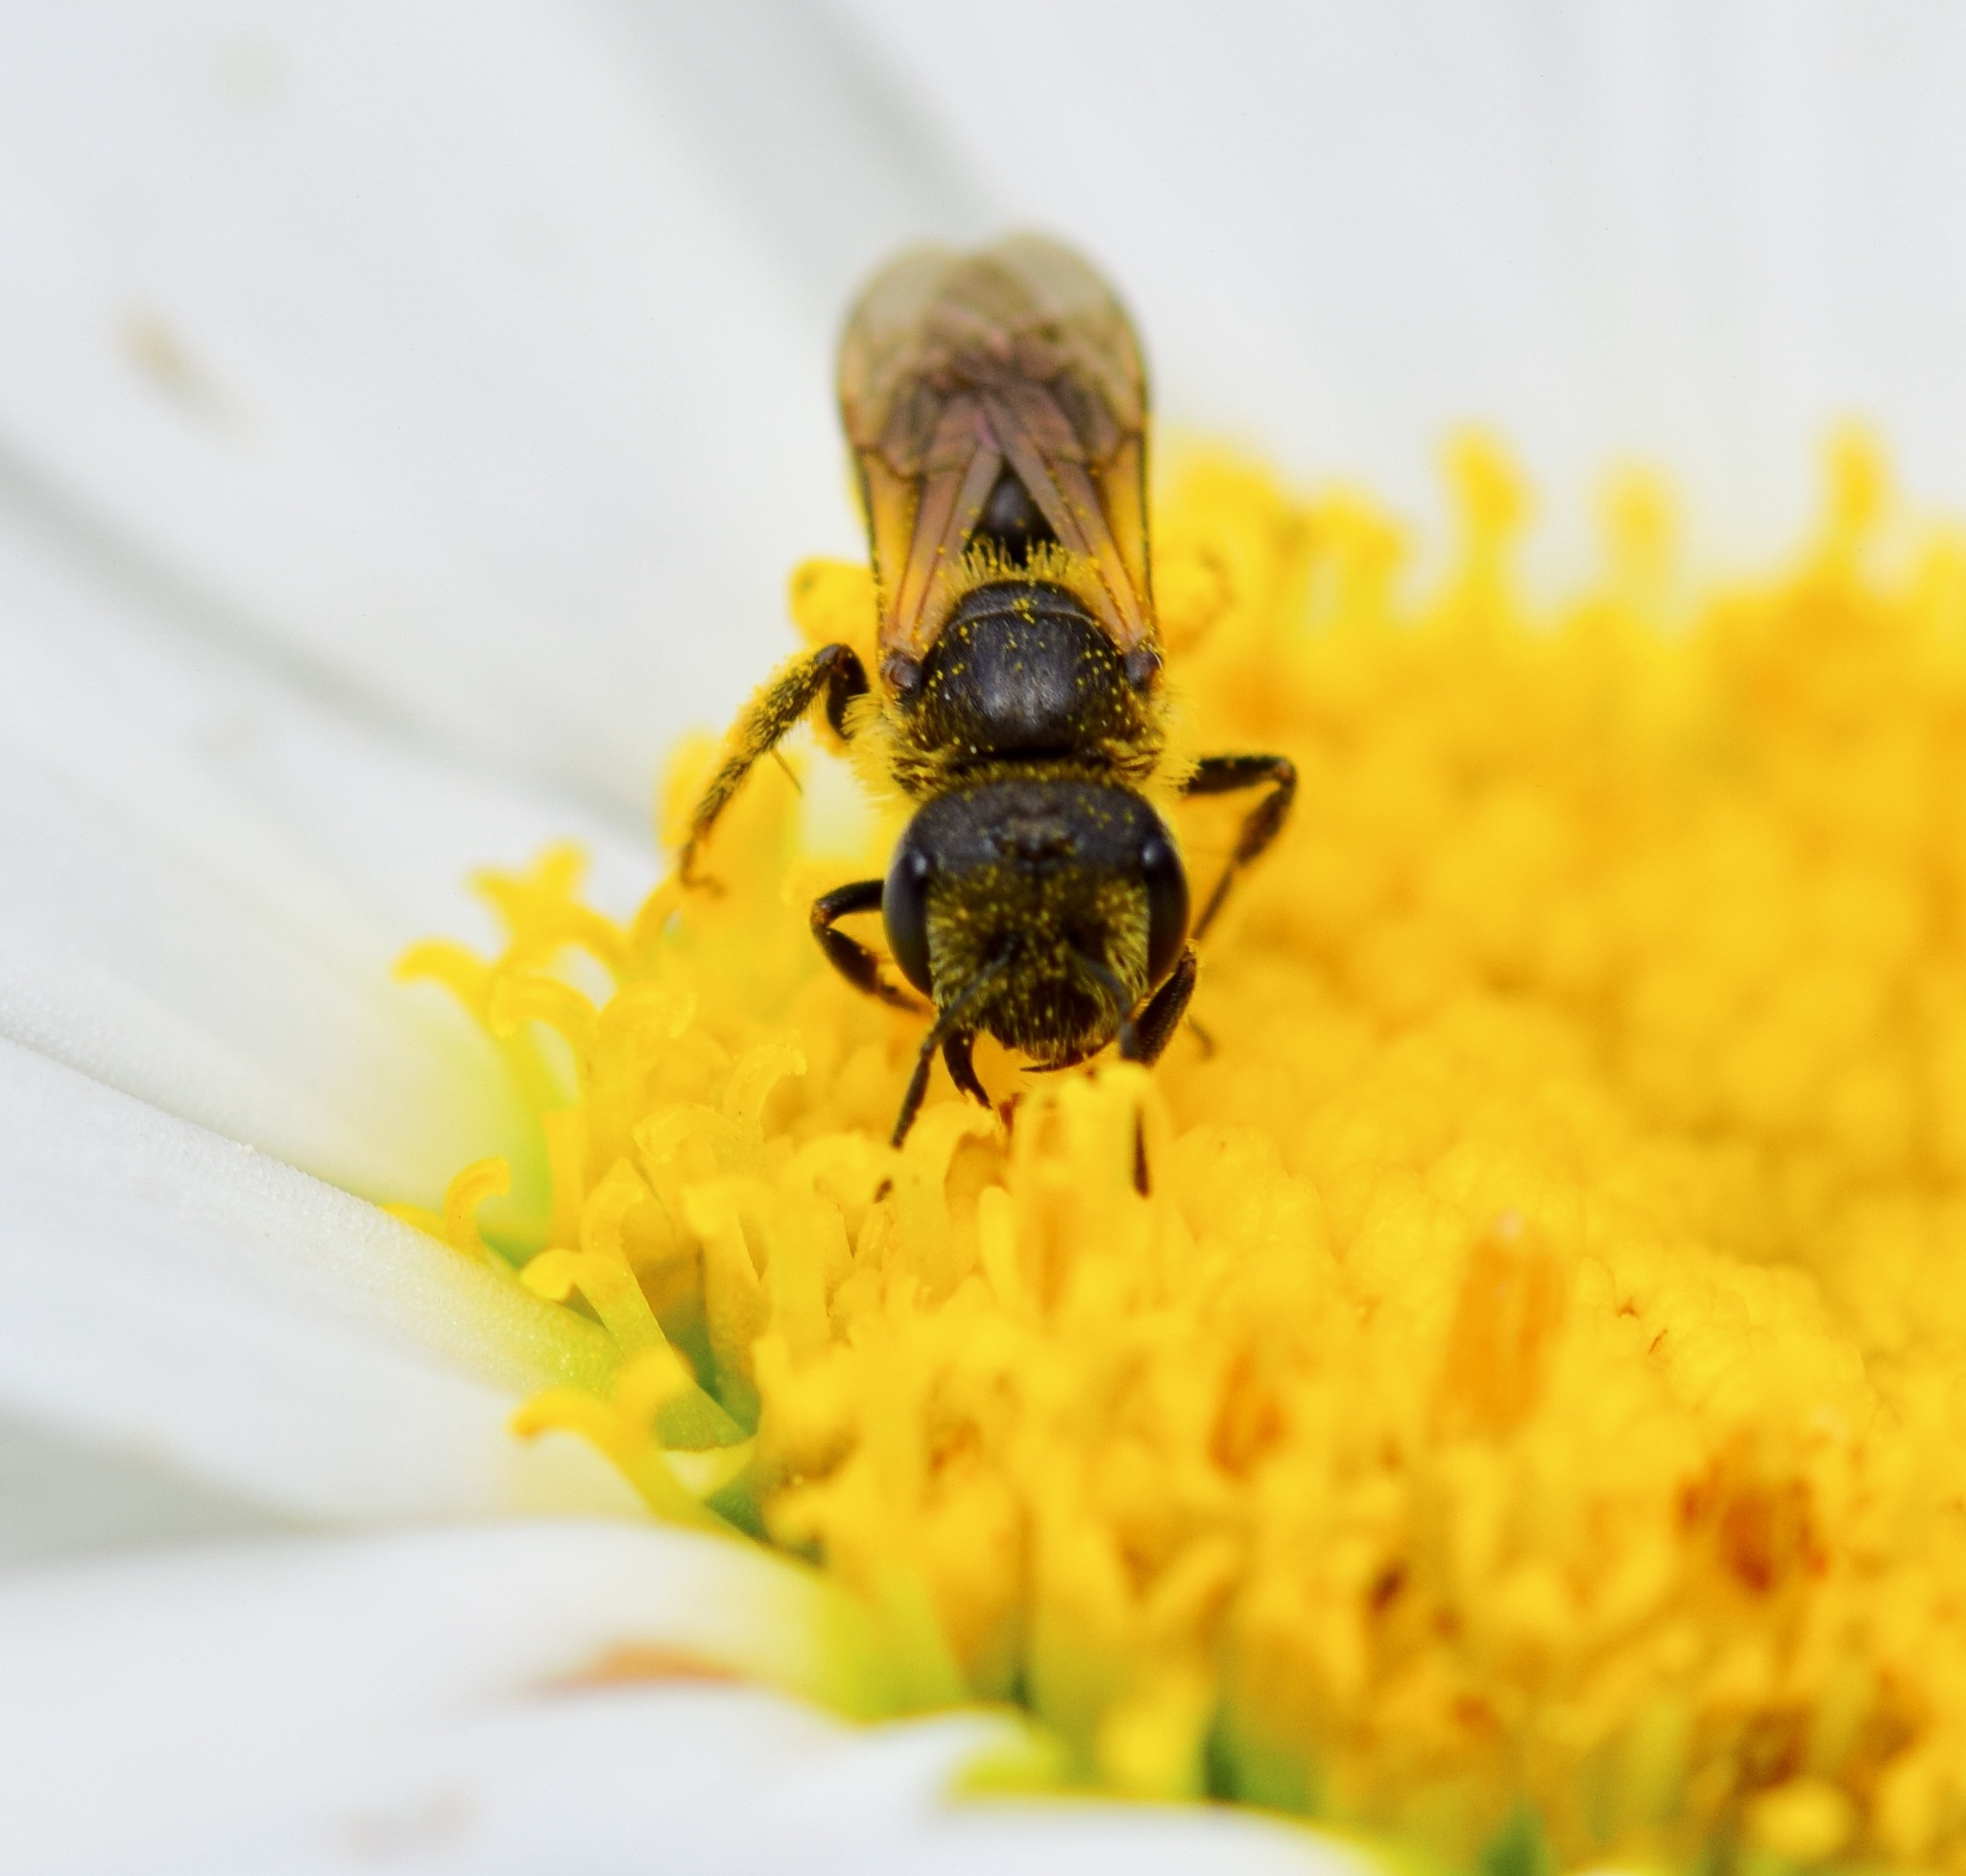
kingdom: Animalia
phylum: Arthropoda
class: Insecta
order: Hymenoptera
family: Halictidae
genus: Halictus
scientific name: Halictus ligatus
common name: Ligated furrow bee
